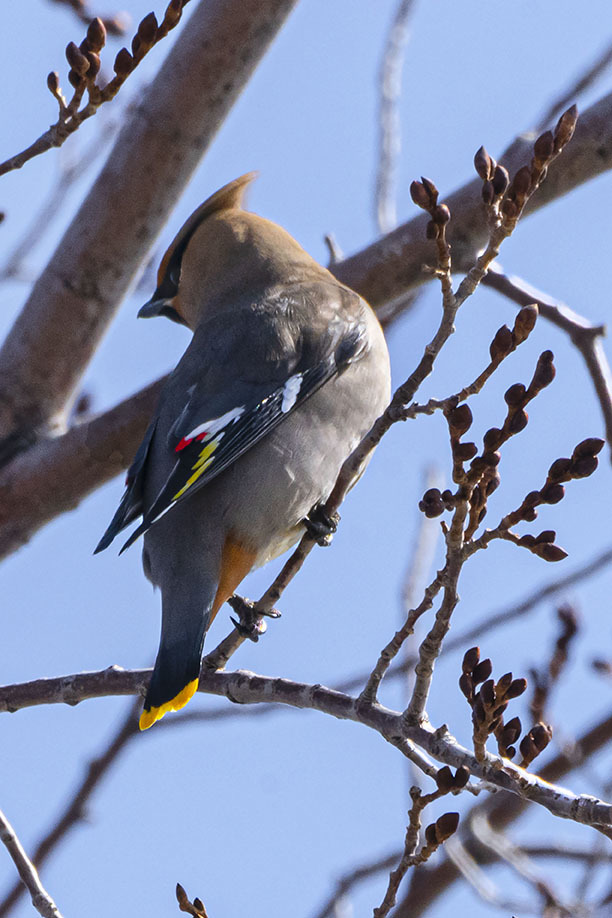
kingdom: Animalia
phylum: Chordata
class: Aves
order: Passeriformes
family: Bombycillidae
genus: Bombycilla
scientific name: Bombycilla garrulus
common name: Bohemian waxwing
